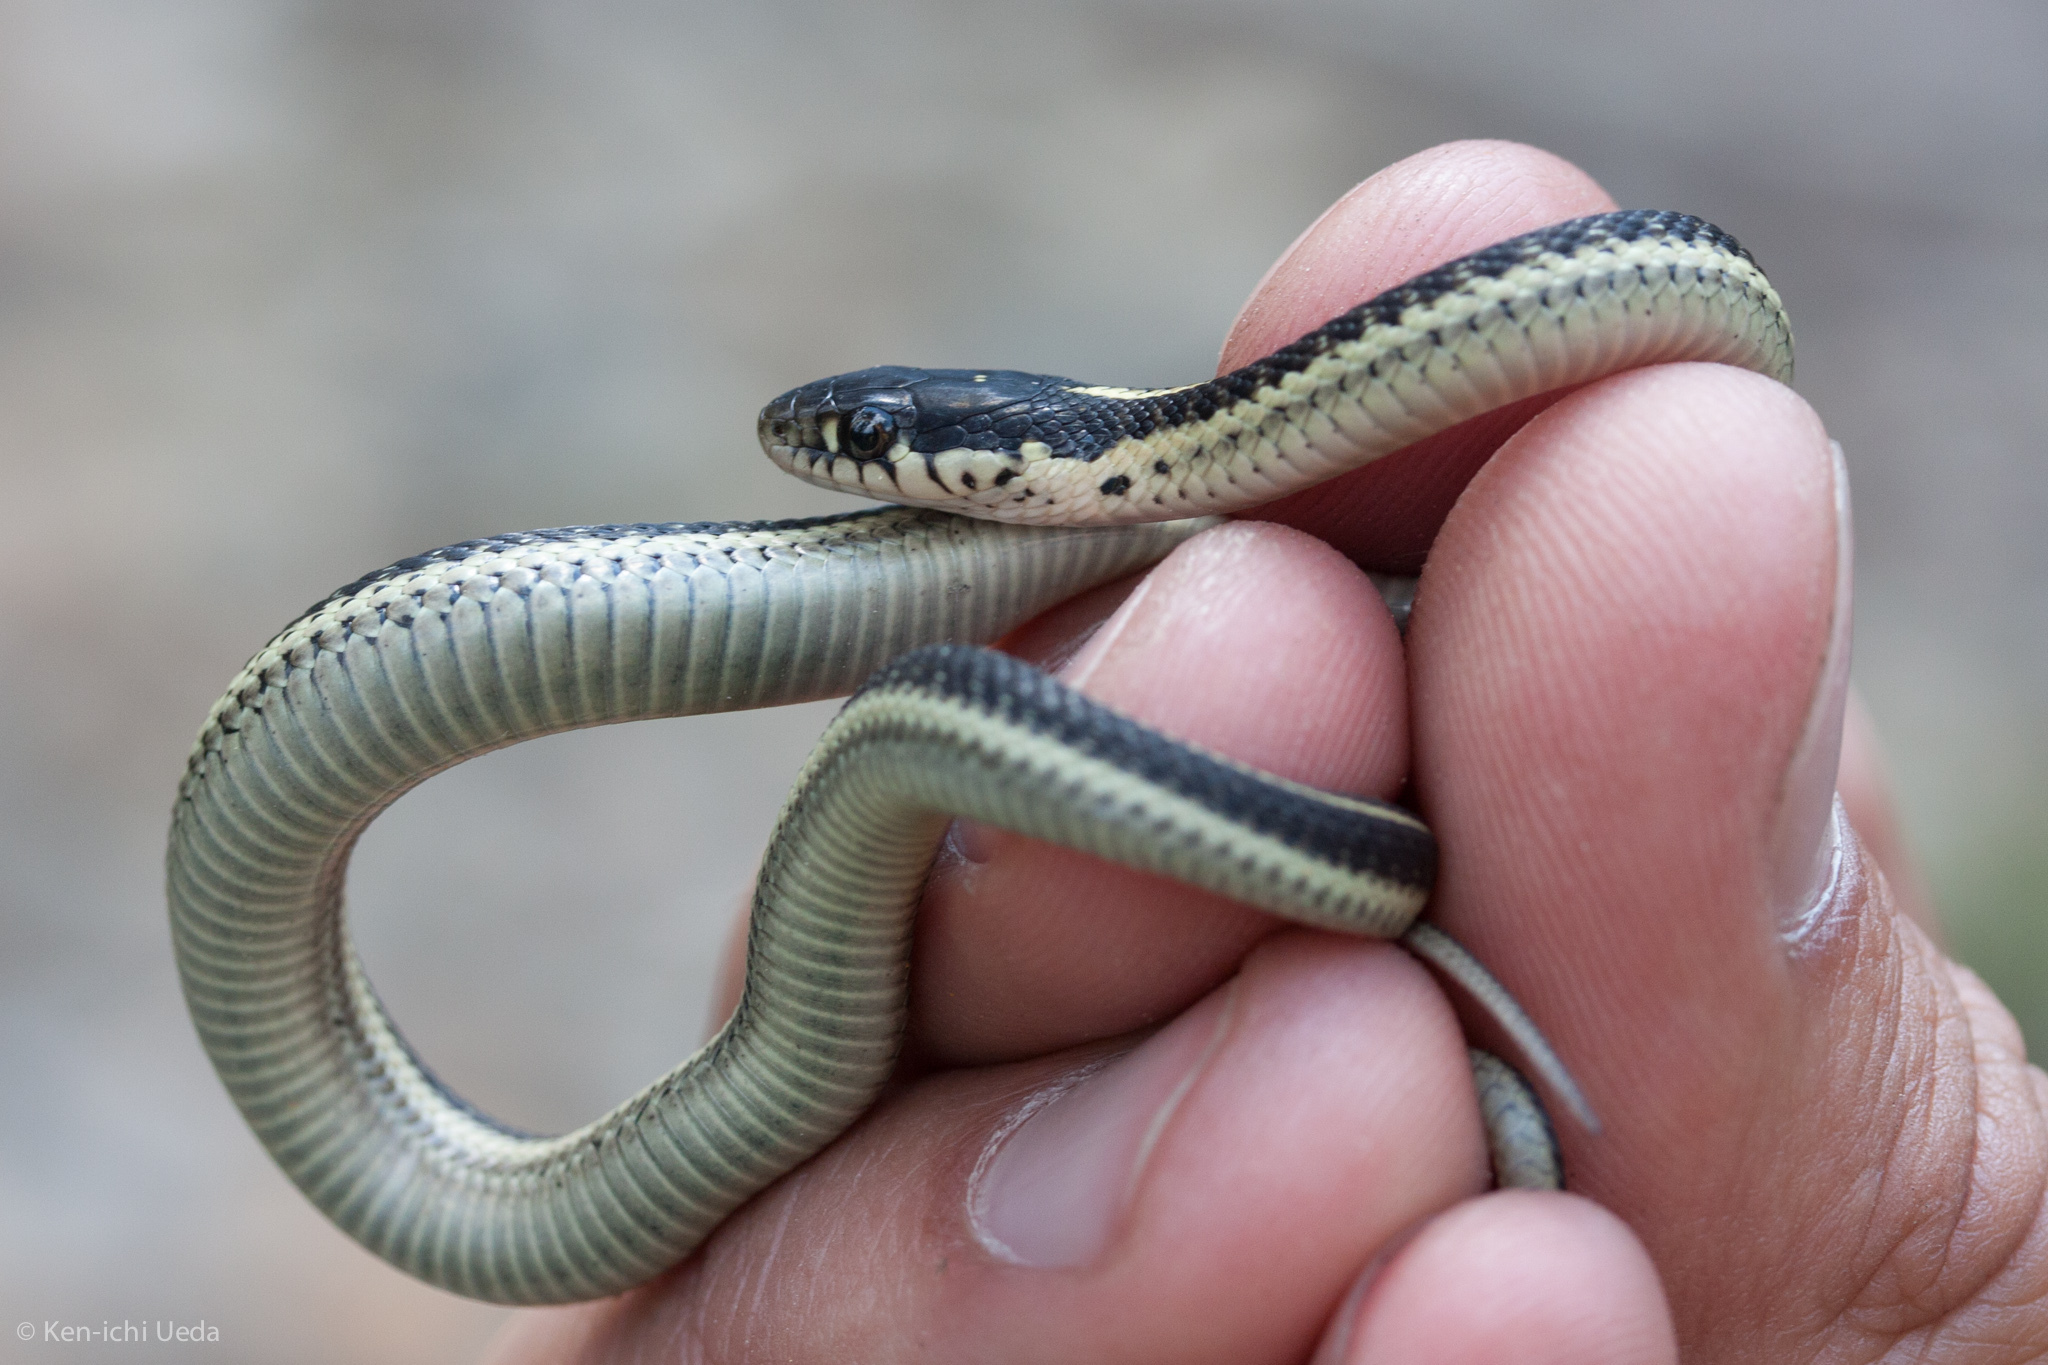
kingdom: Animalia
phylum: Chordata
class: Squamata
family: Colubridae
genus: Thamnophis
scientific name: Thamnophis elegans
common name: Western terrestrial garter snake
